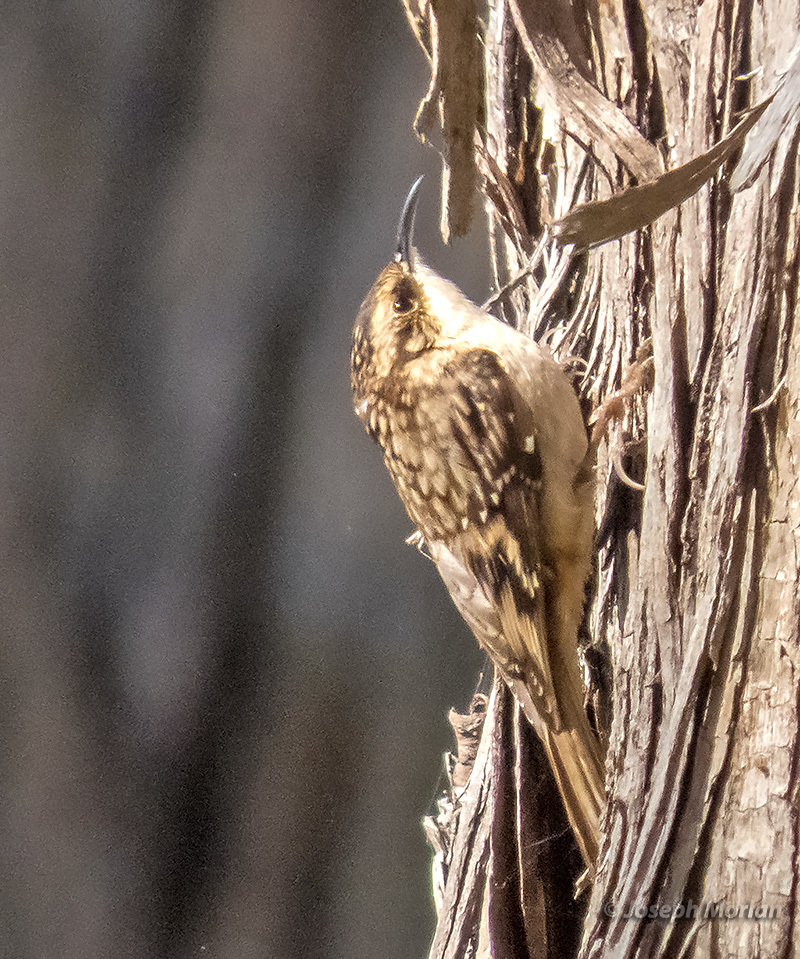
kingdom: Animalia
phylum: Chordata
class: Aves
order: Passeriformes
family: Certhiidae
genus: Certhia
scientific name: Certhia americana
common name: Brown creeper
